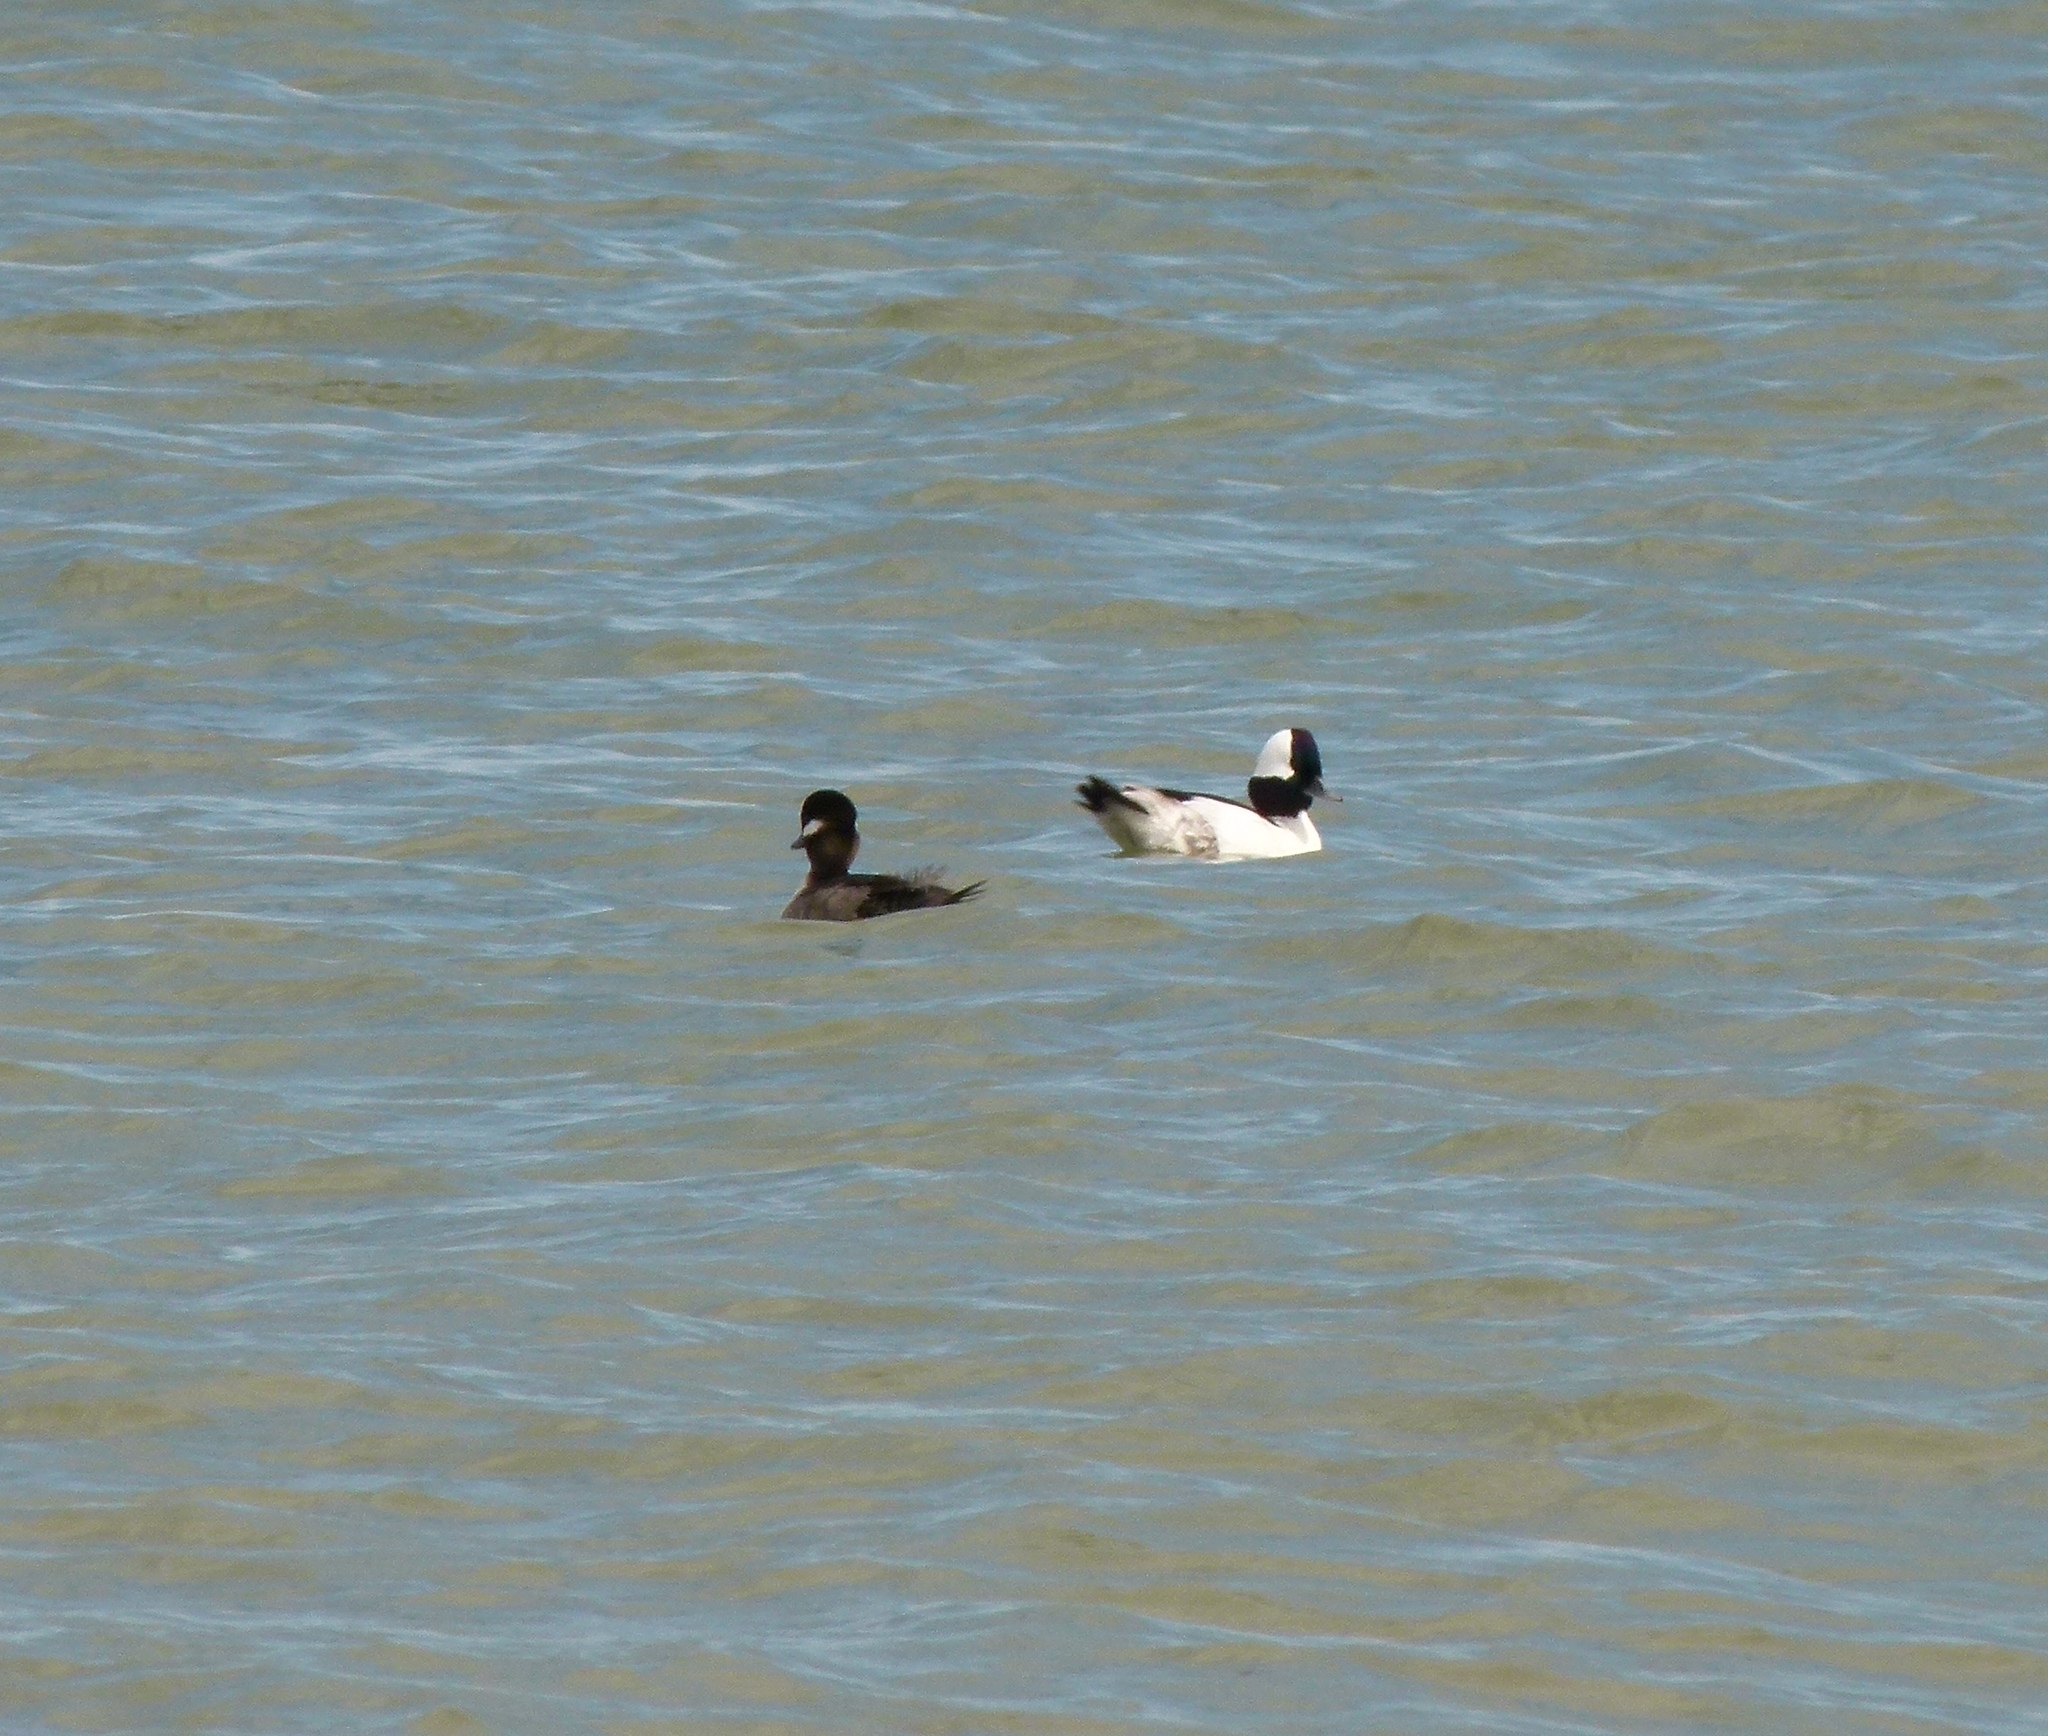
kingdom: Animalia
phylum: Chordata
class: Aves
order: Anseriformes
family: Anatidae
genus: Bucephala
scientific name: Bucephala albeola
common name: Bufflehead
